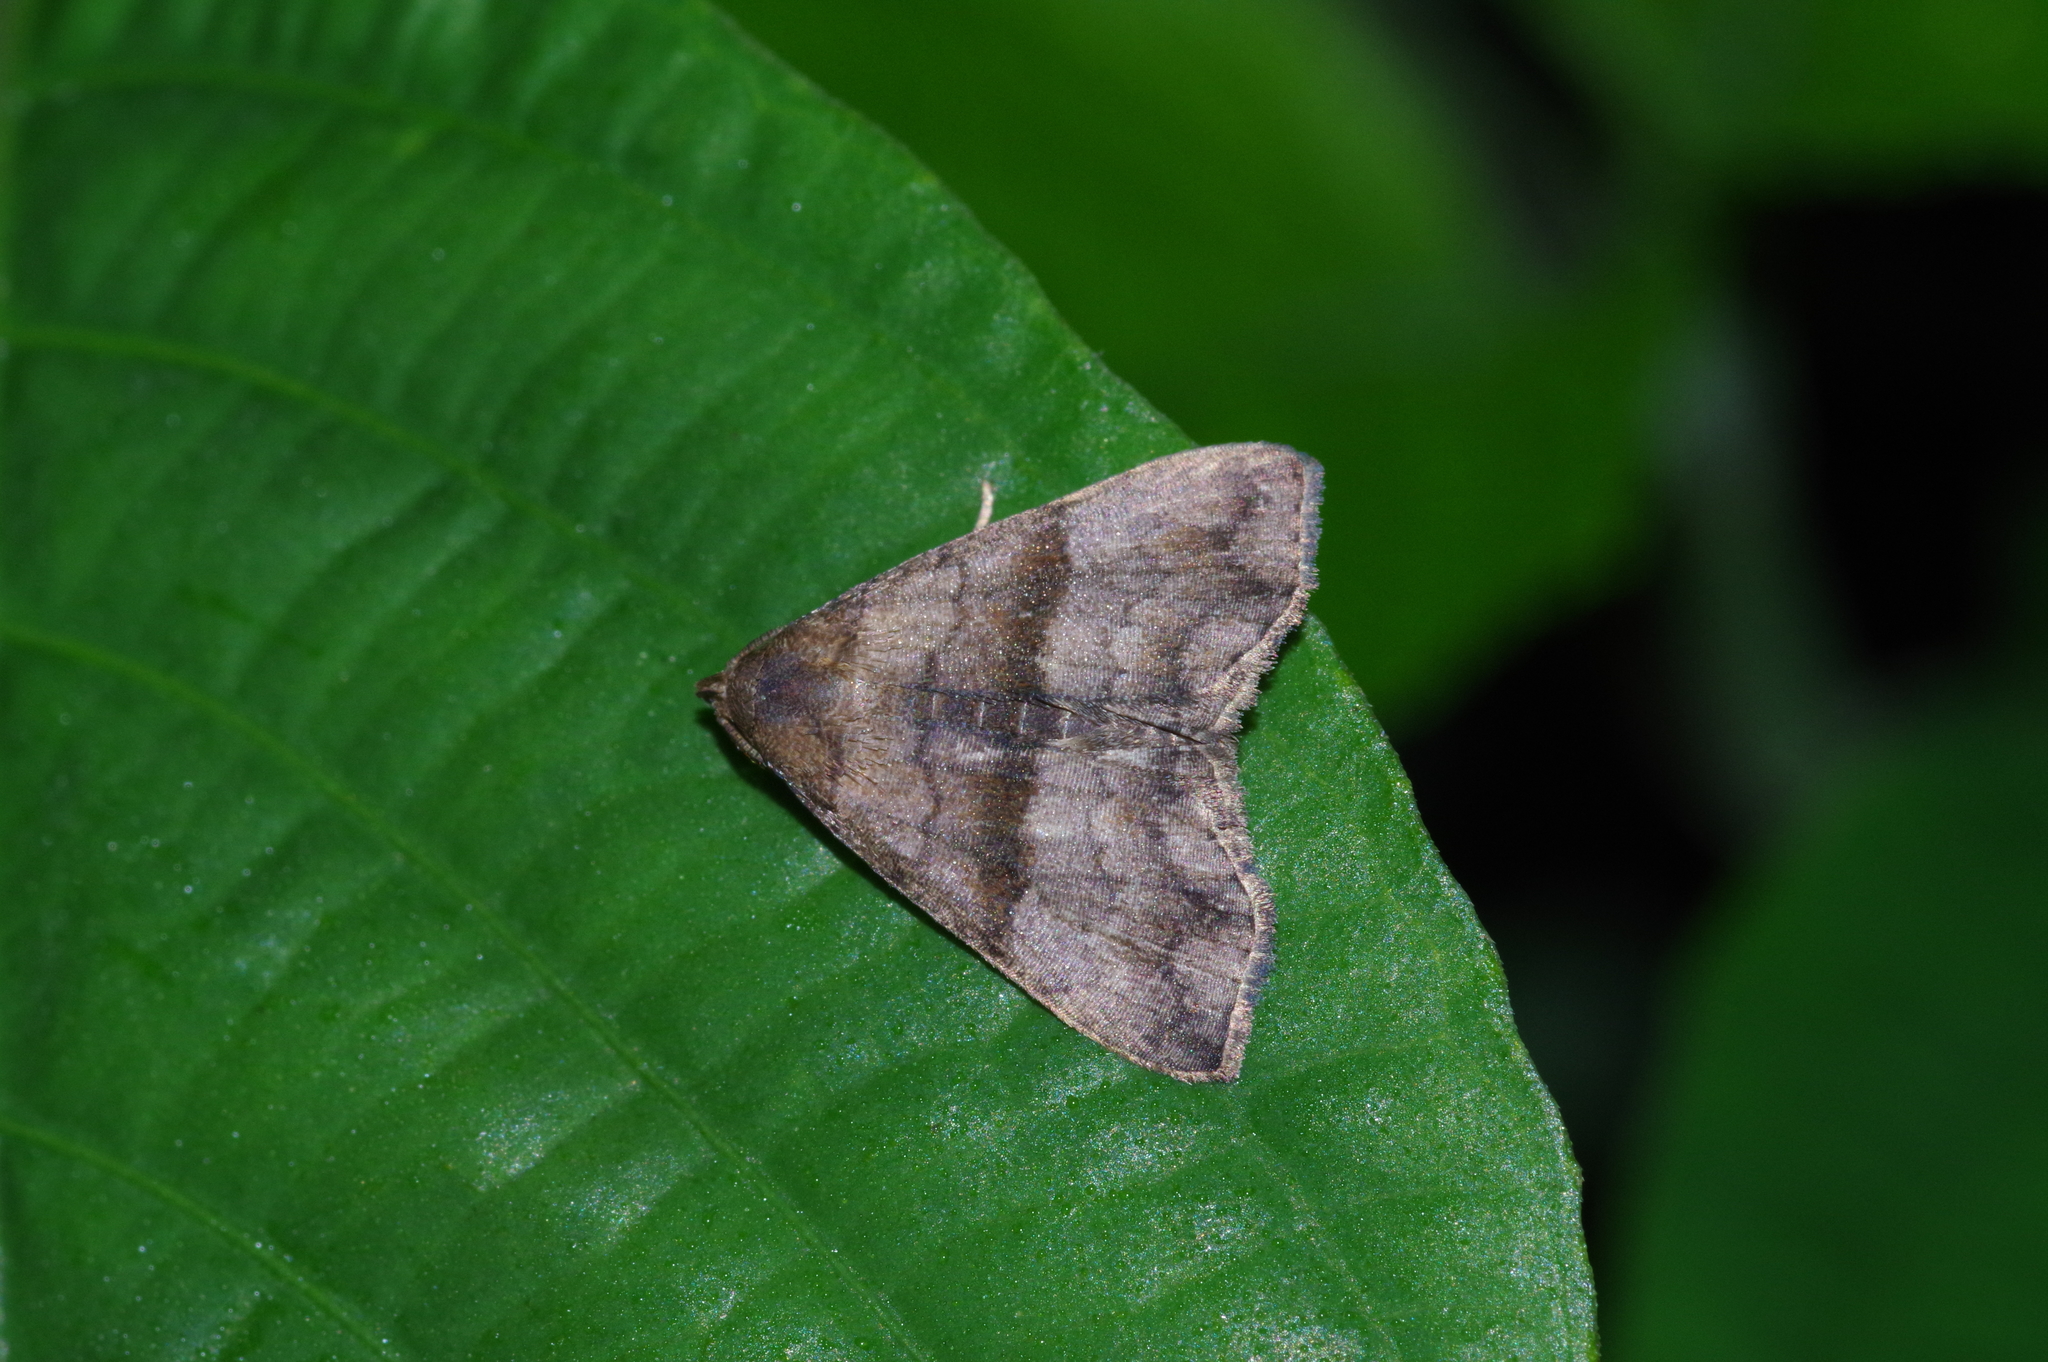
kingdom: Animalia
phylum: Arthropoda
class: Insecta
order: Lepidoptera
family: Erebidae
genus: Polypogon
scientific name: Polypogon Hipoepa fractalis
